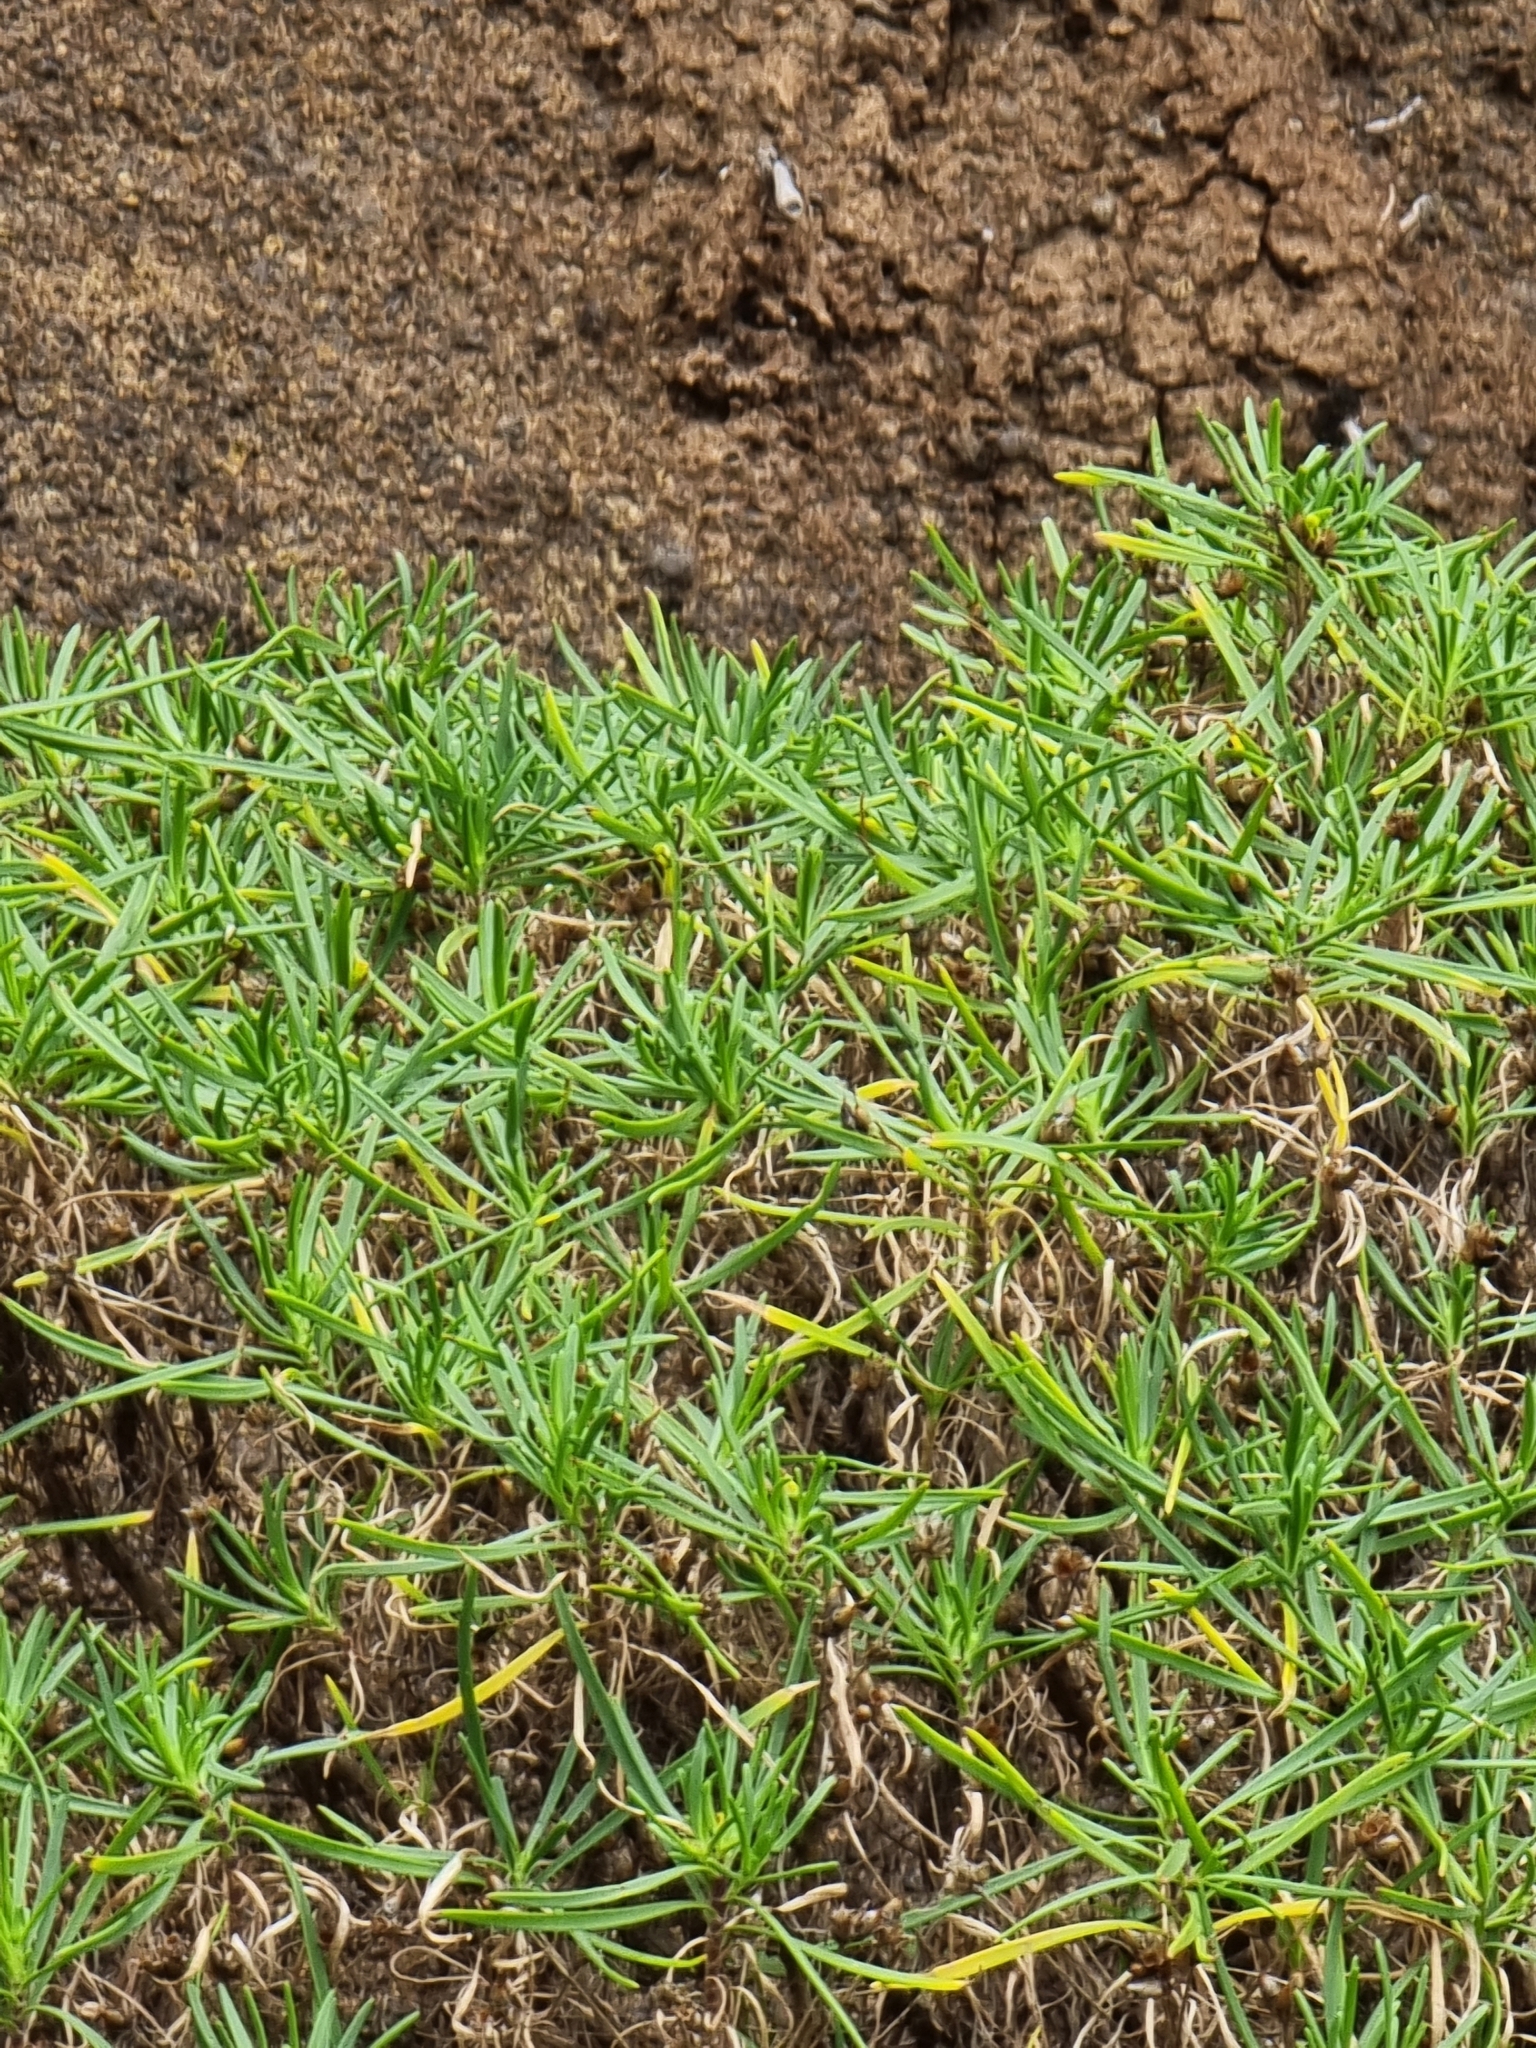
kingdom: Plantae
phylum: Tracheophyta
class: Magnoliopsida
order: Lamiales
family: Plantaginaceae
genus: Plantago
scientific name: Plantago arborescens
